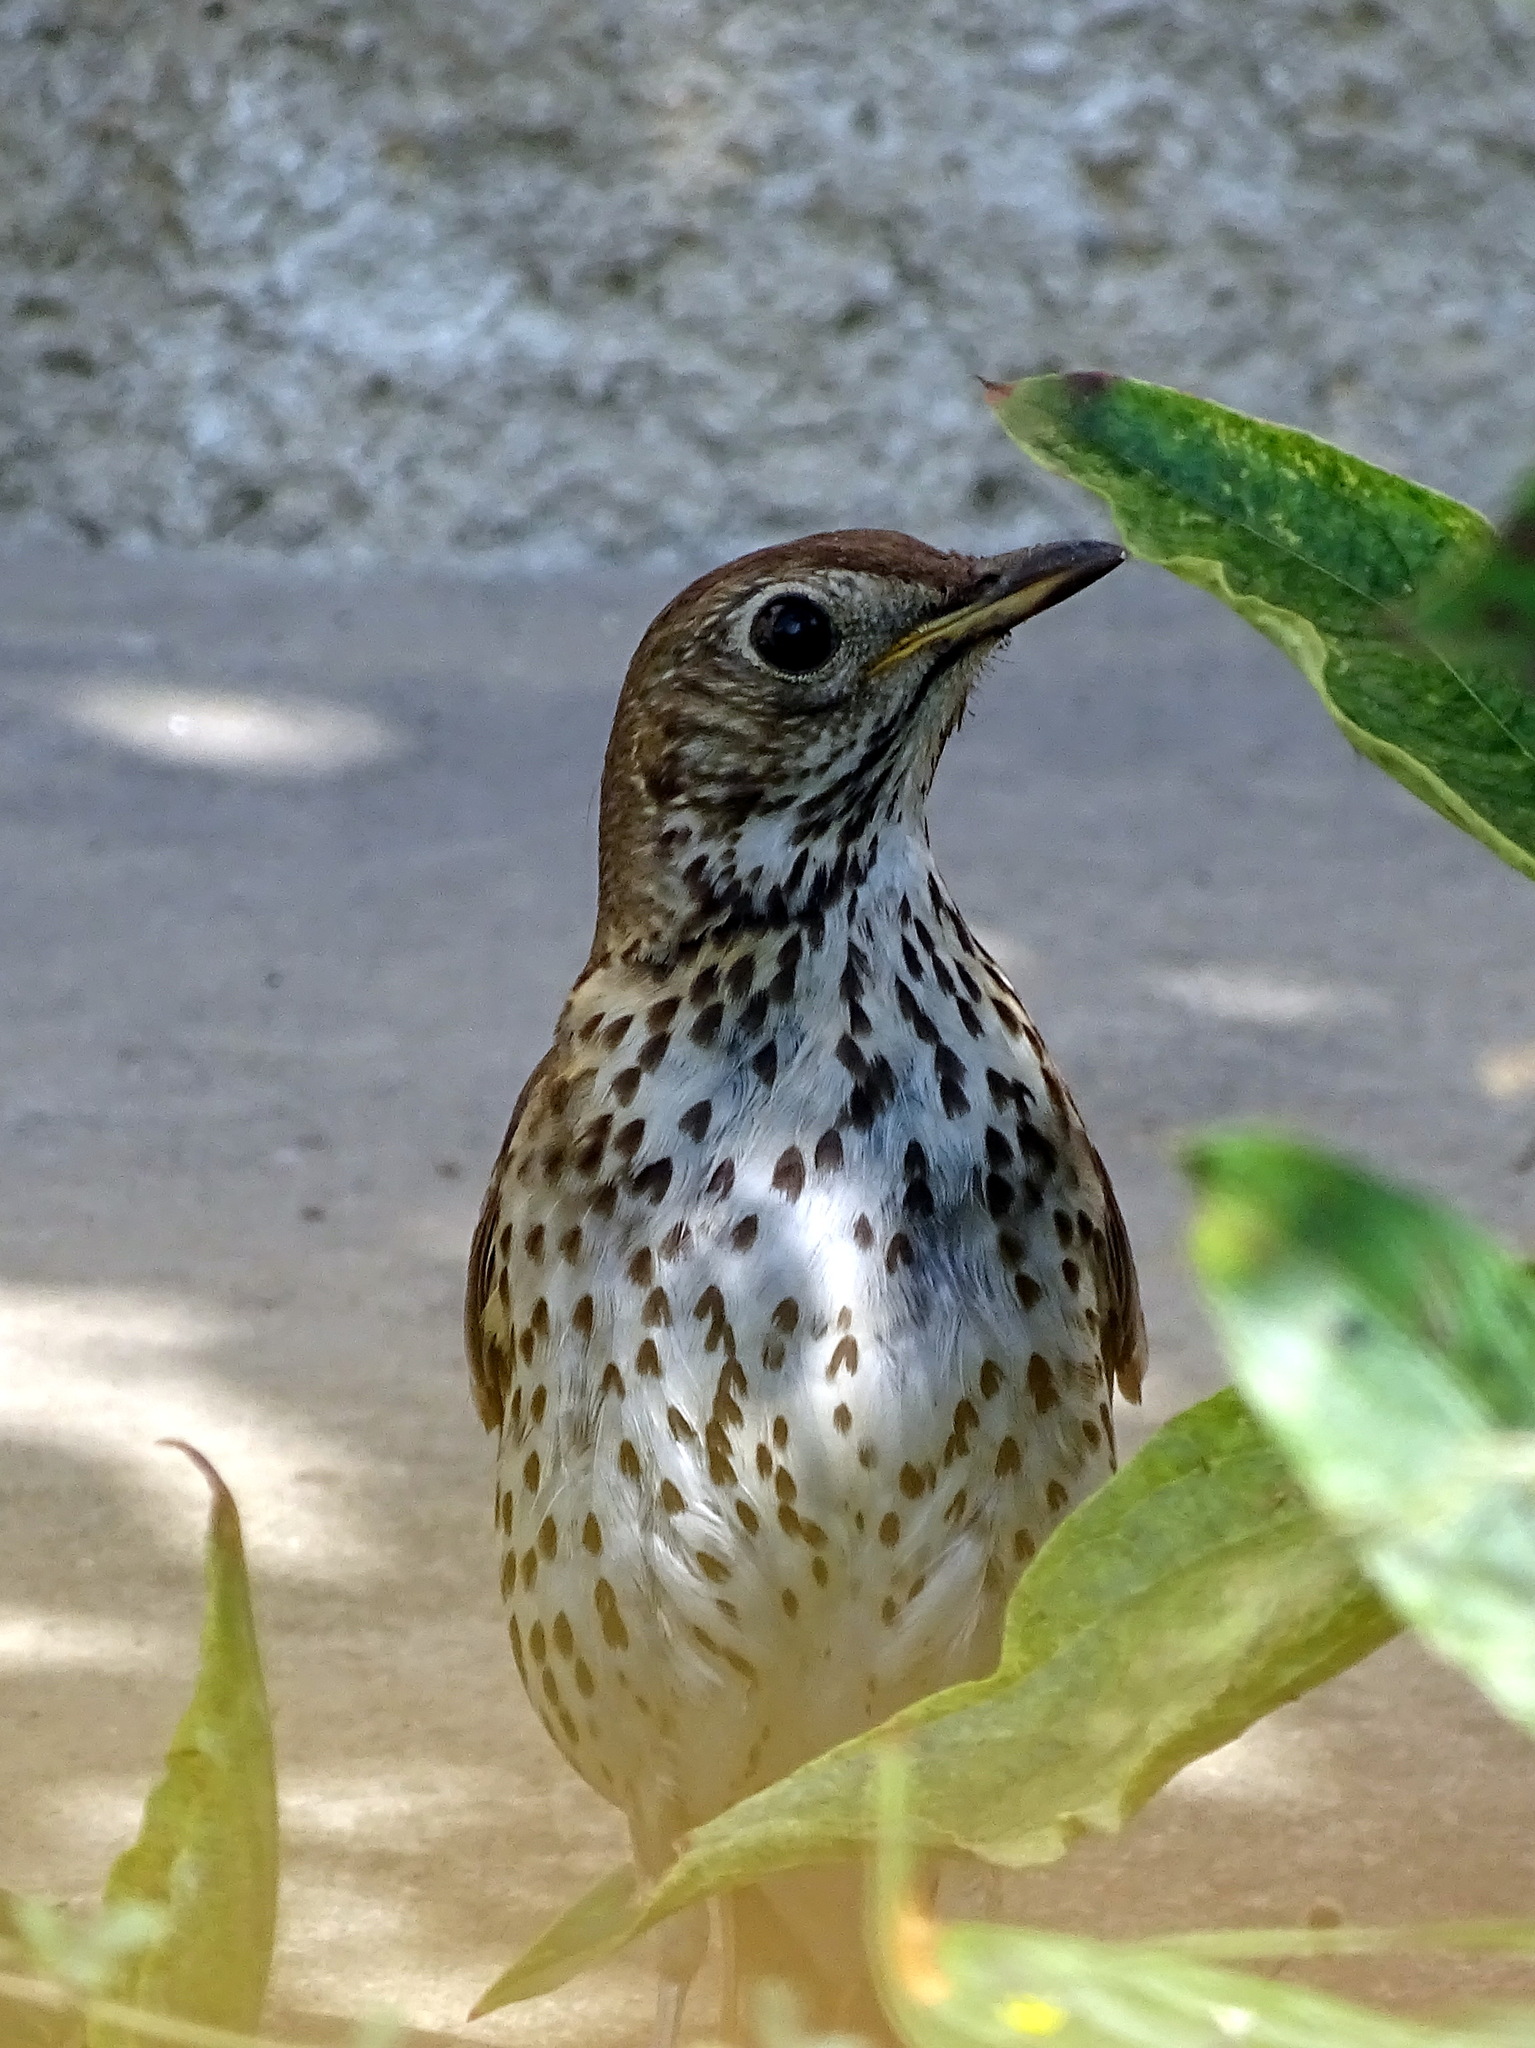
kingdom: Animalia
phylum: Chordata
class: Aves
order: Passeriformes
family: Turdidae
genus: Turdus
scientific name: Turdus philomelos
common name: Song thrush
